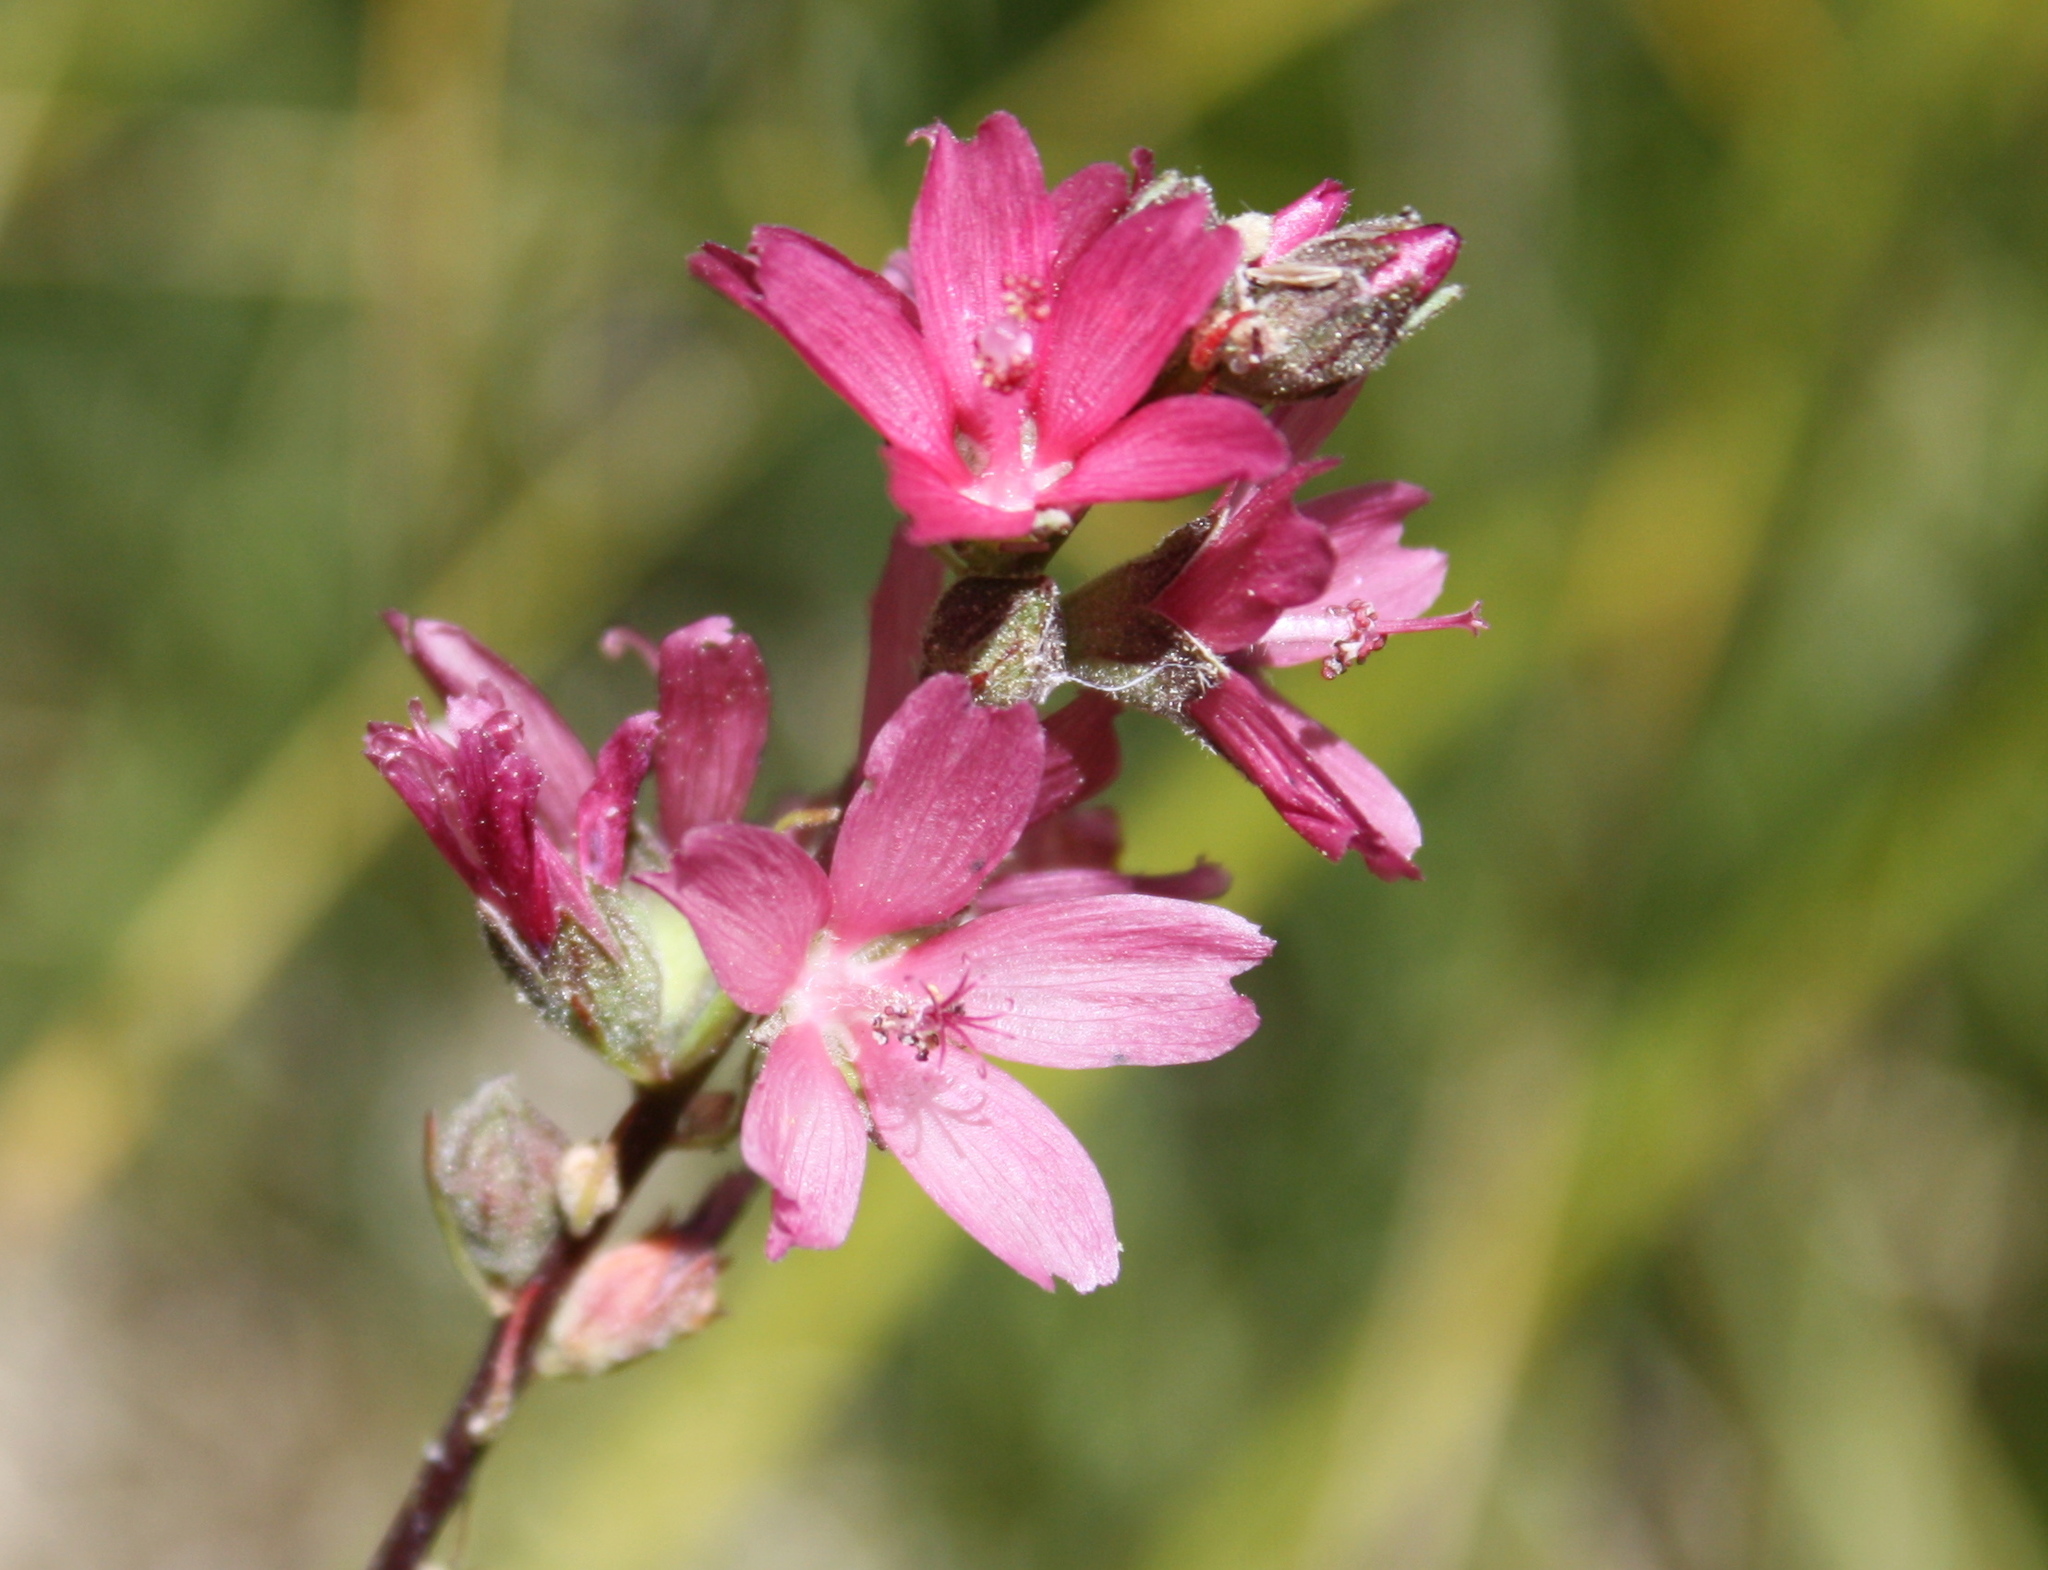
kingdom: Plantae
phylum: Tracheophyta
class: Magnoliopsida
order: Malvales
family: Malvaceae
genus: Sidalcea
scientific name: Sidalcea oregana
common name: Oregon checker-mallow
